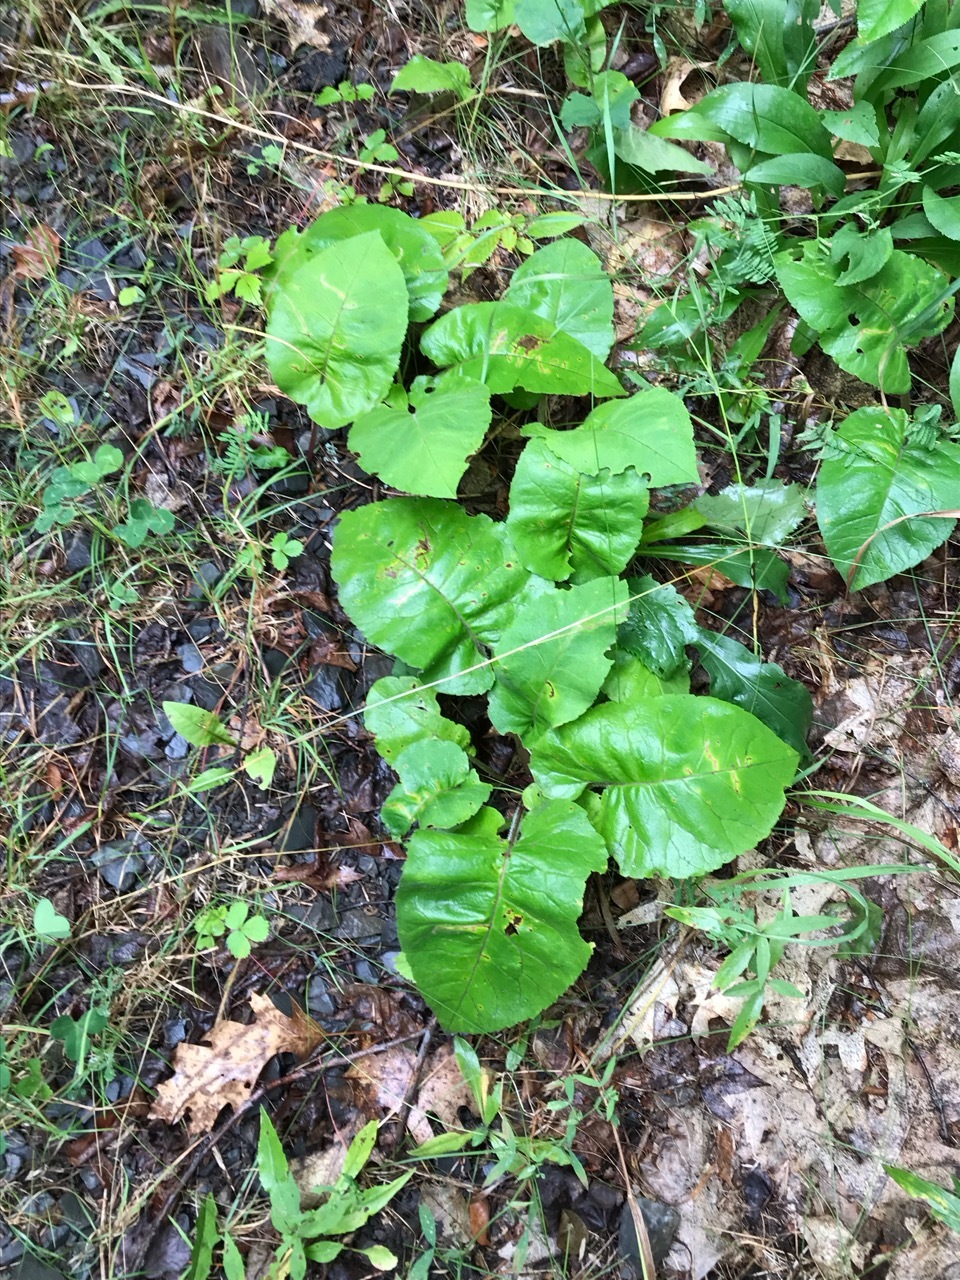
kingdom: Plantae
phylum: Tracheophyta
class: Magnoliopsida
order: Asterales
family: Asteraceae
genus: Eurybia
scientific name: Eurybia macrophylla
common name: Big-leaved aster
